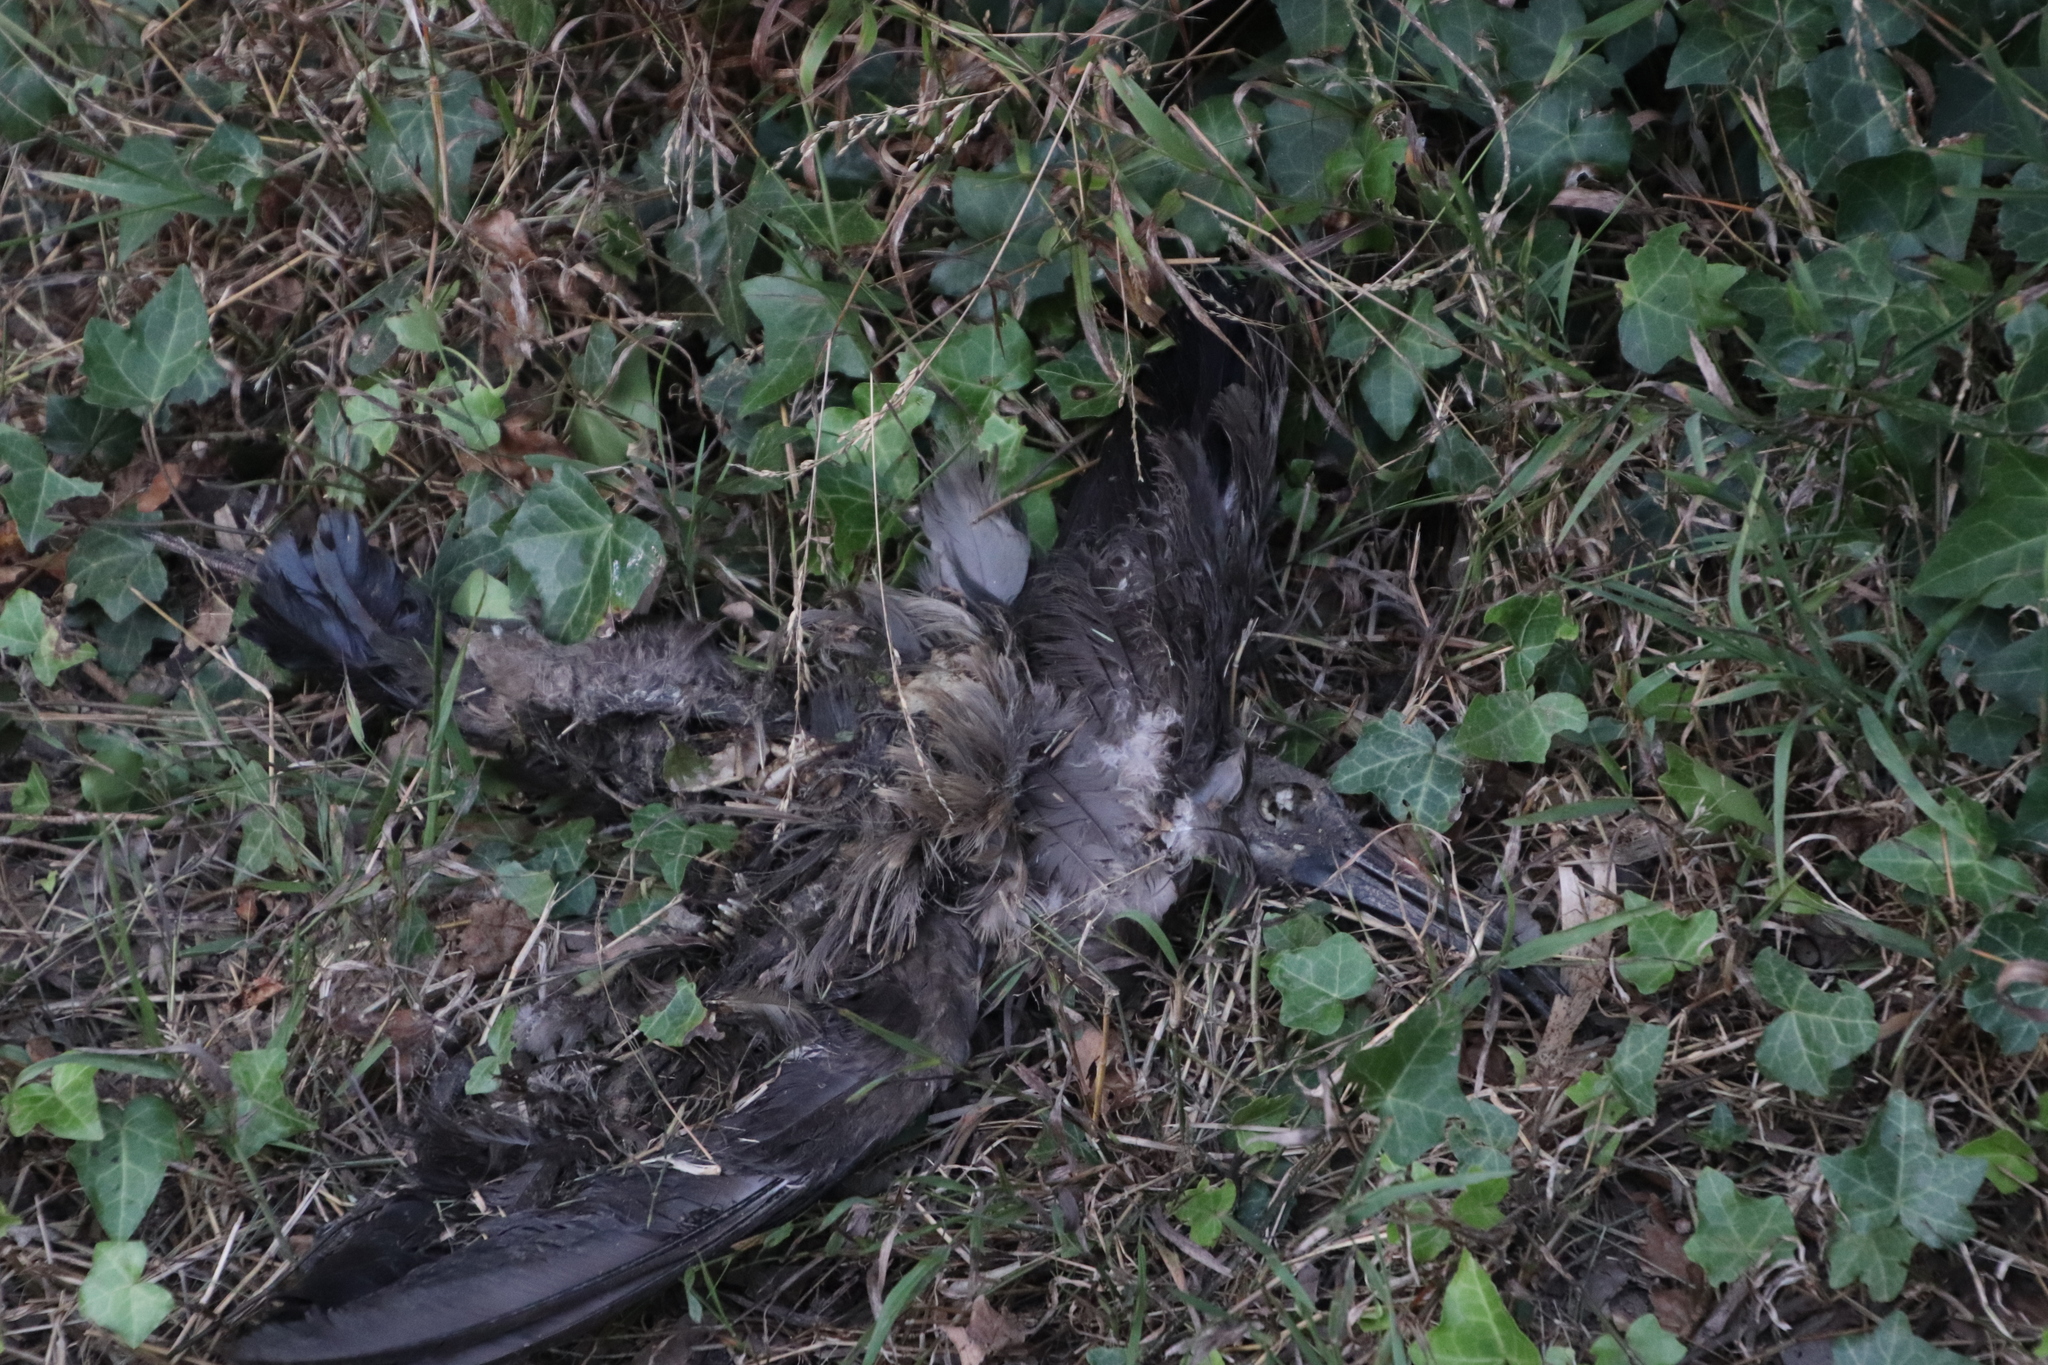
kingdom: Animalia
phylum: Chordata
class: Aves
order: Pelecaniformes
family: Threskiornithidae
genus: Bostrychia
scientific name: Bostrychia hagedash
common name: Hadada ibis
